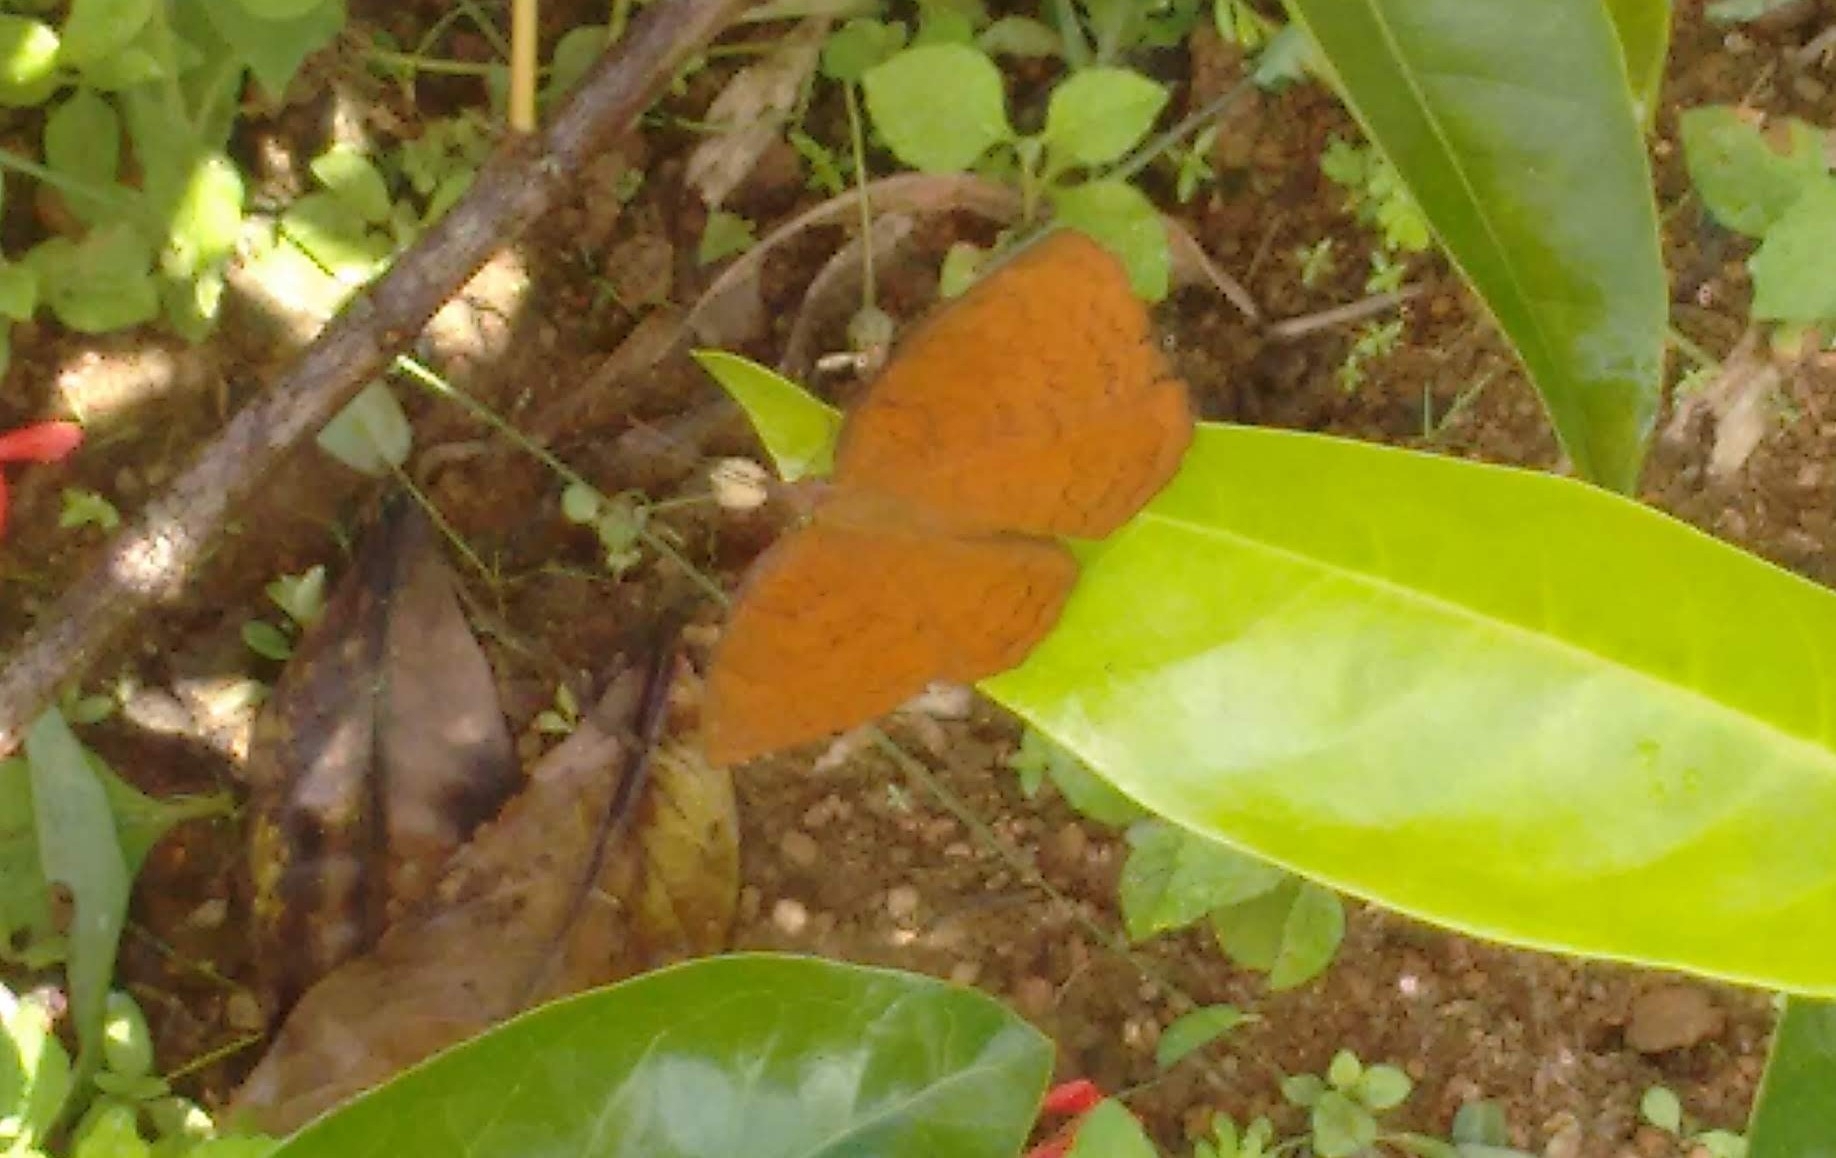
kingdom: Animalia
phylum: Arthropoda
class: Insecta
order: Lepidoptera
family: Nymphalidae
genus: Ariadne
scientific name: Ariadne ariadne
